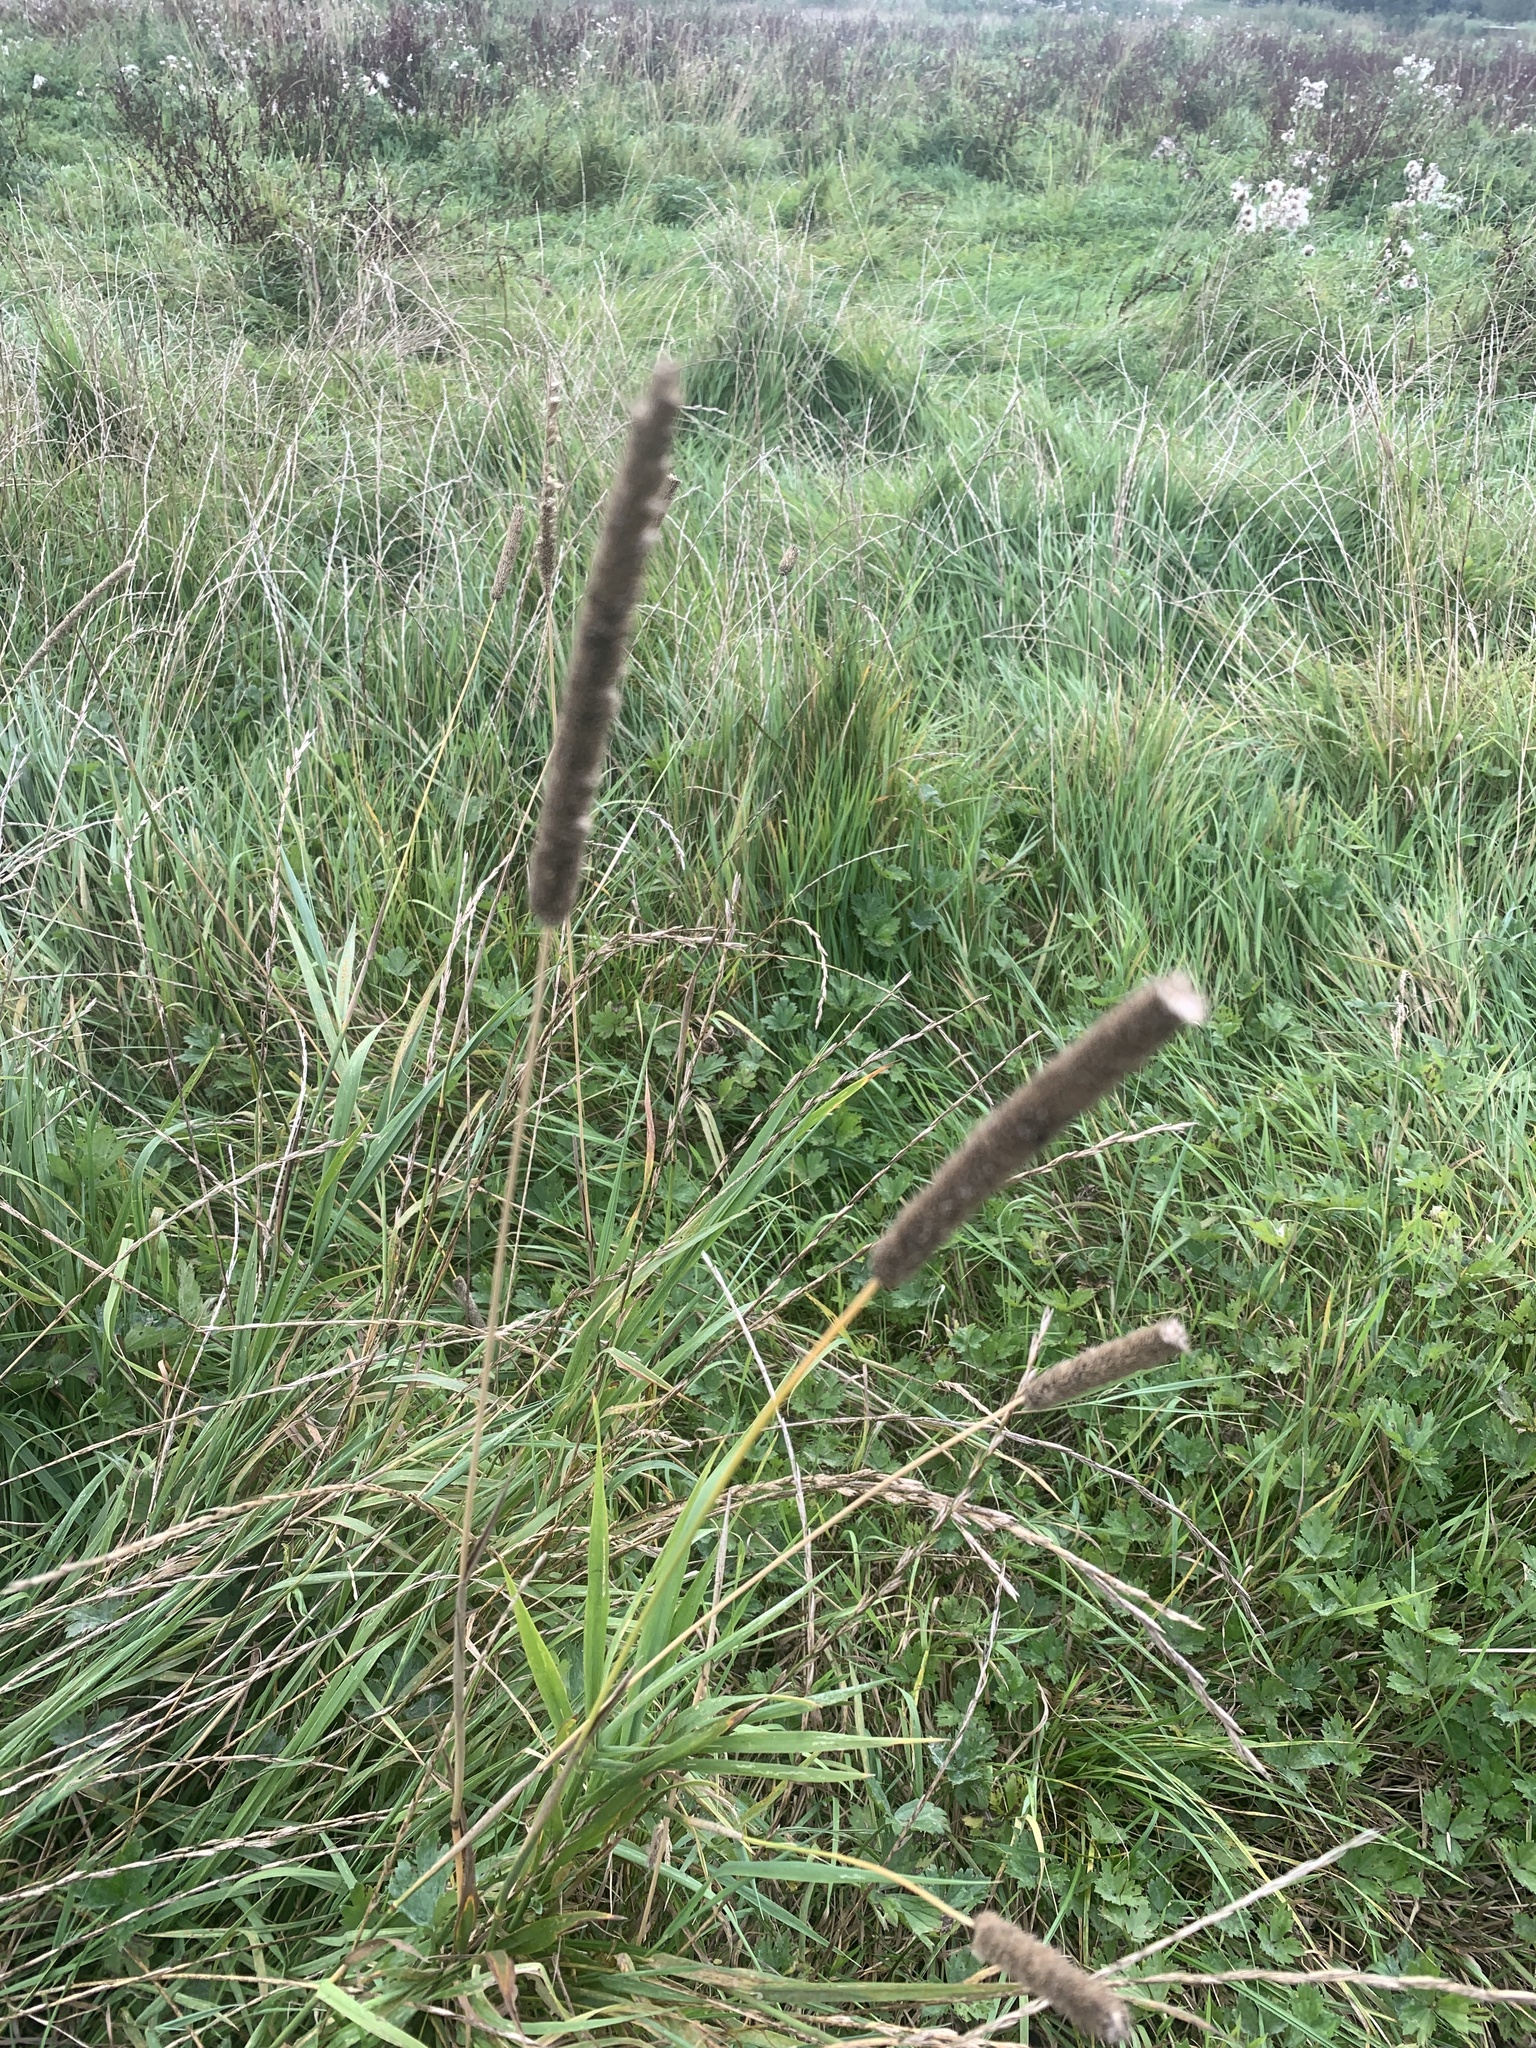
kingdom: Plantae
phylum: Tracheophyta
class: Liliopsida
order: Poales
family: Poaceae
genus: Phleum
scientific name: Phleum pratense
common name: Timothy grass
